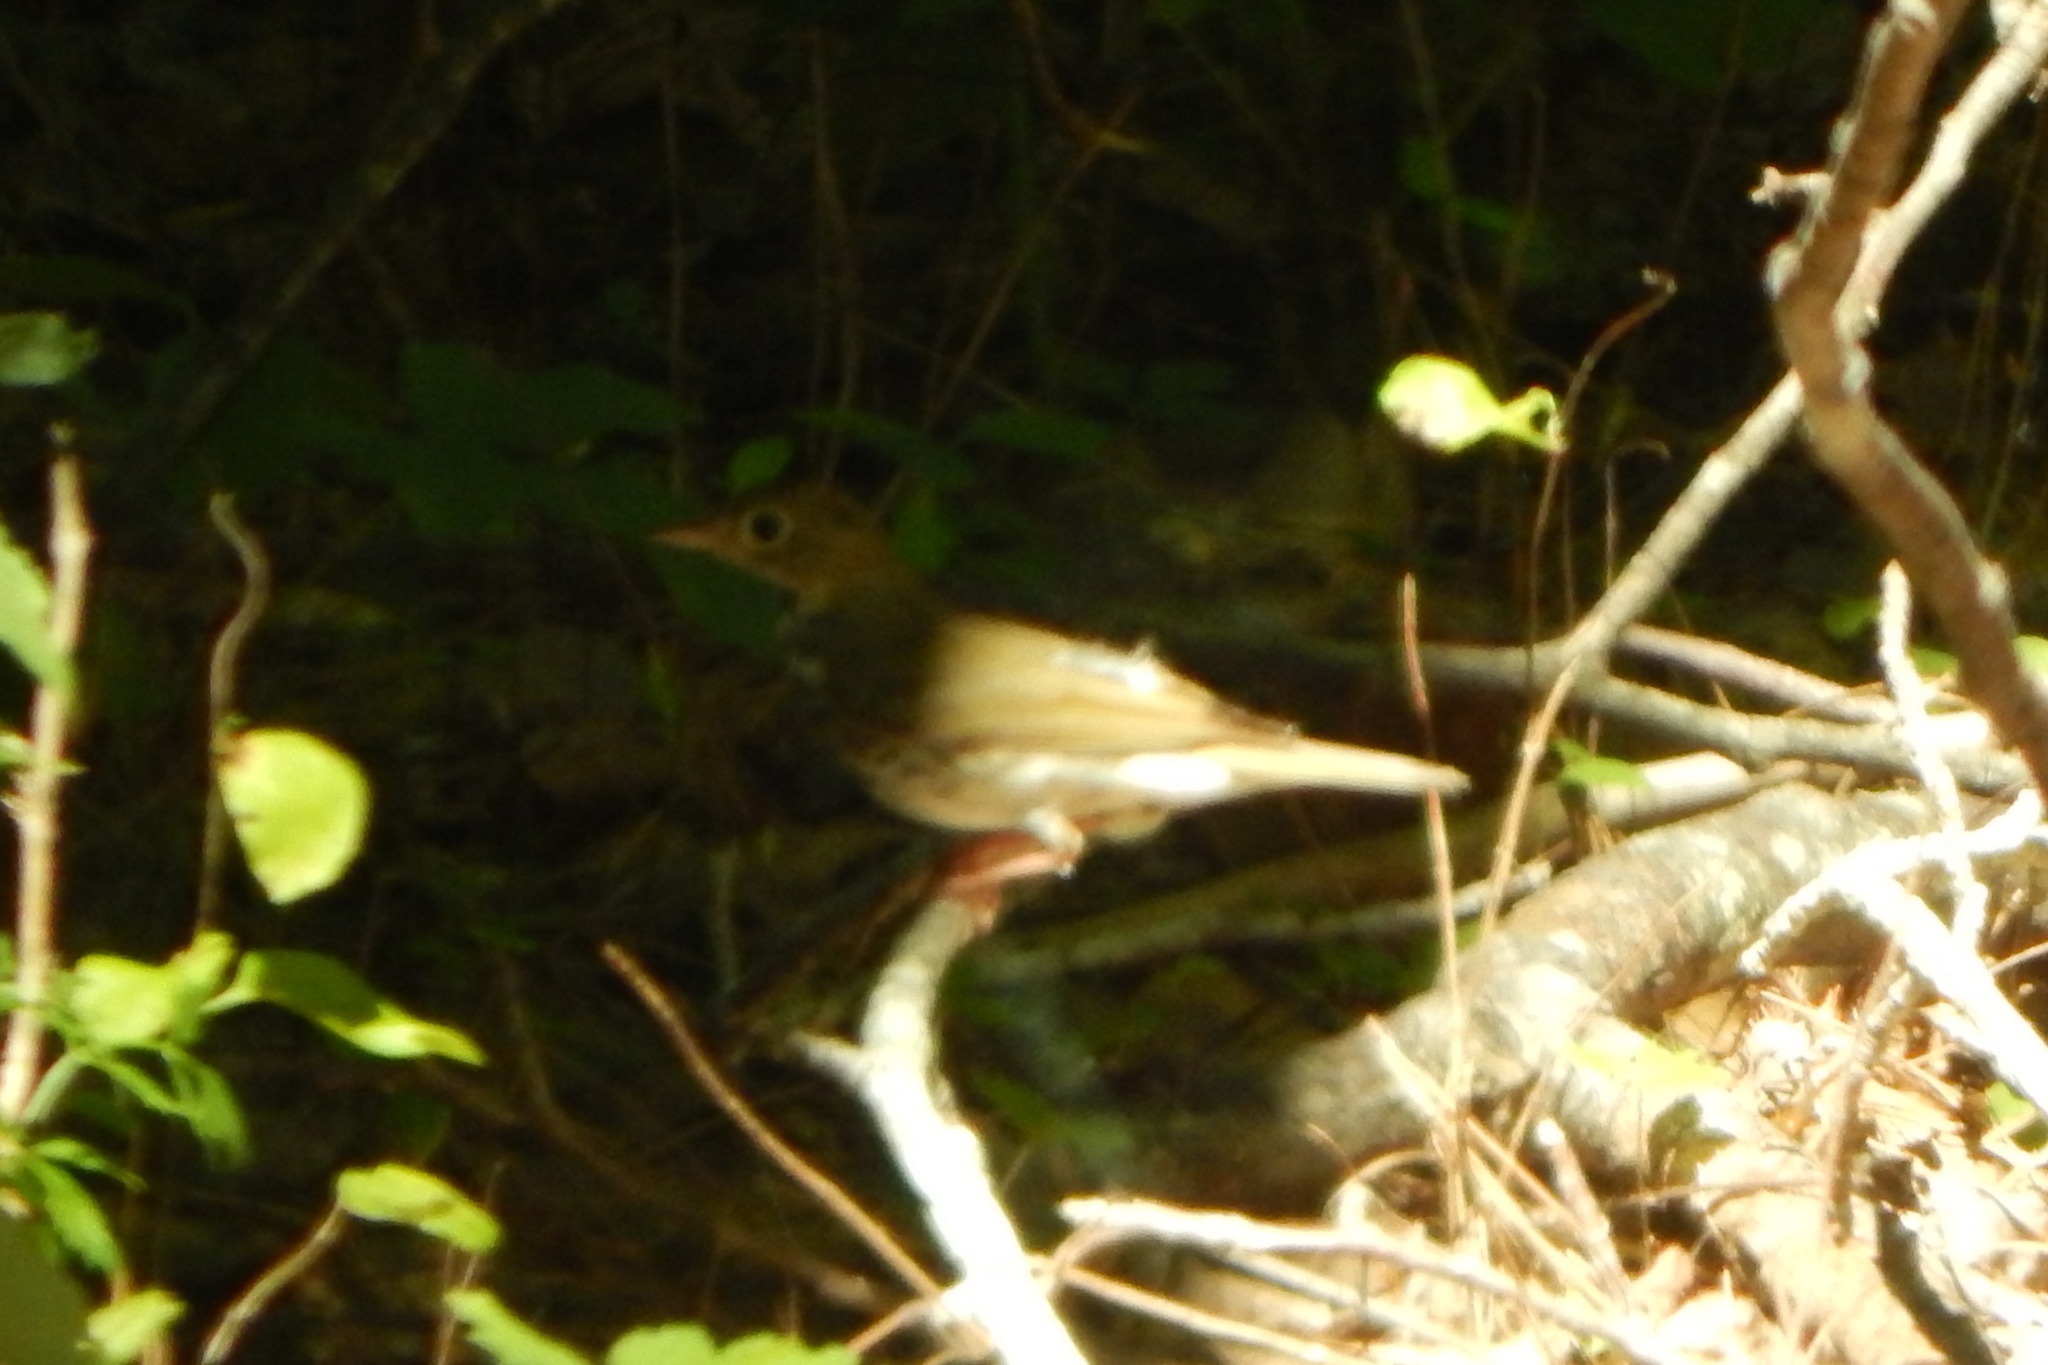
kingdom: Animalia
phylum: Chordata
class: Aves
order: Passeriformes
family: Parulidae
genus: Seiurus
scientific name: Seiurus aurocapilla
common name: Ovenbird
